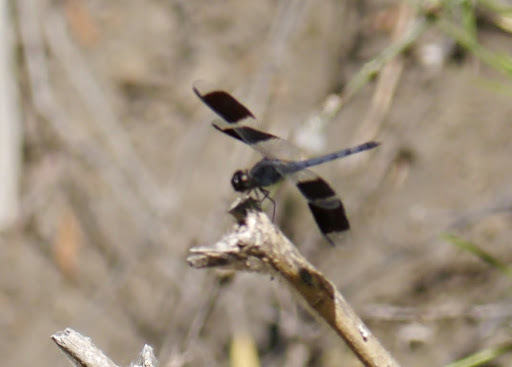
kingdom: Animalia
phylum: Arthropoda
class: Insecta
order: Odonata
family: Libellulidae
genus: Erythrodiplax
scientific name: Erythrodiplax umbrata
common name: Band-winged dragonlet
